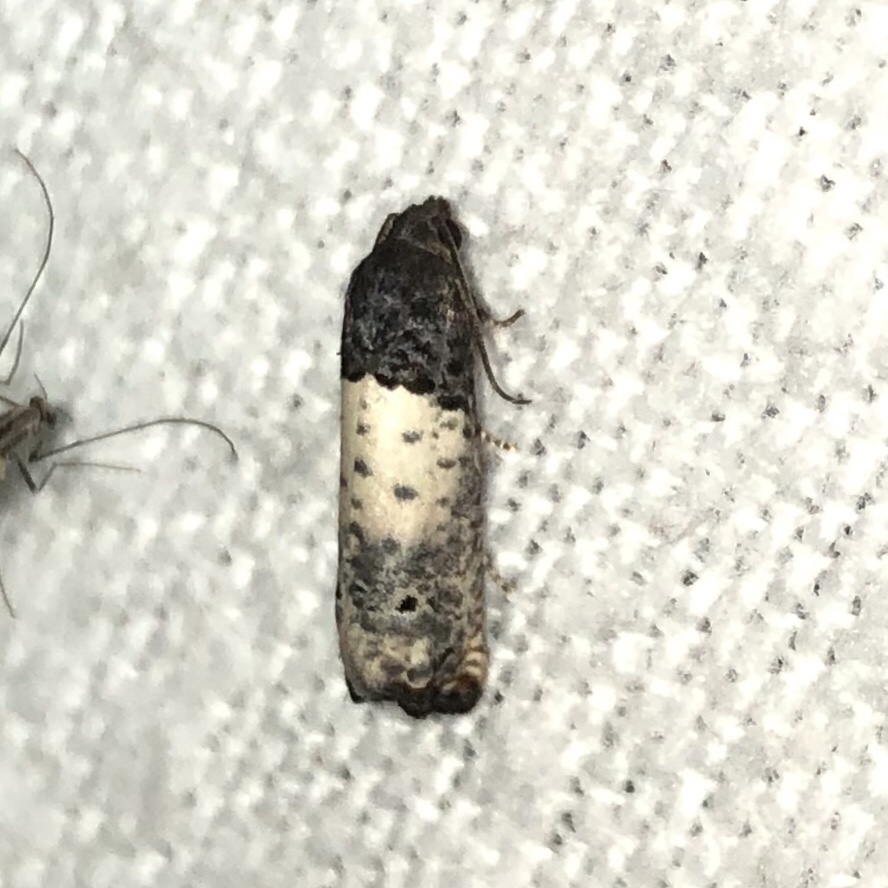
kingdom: Animalia
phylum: Arthropoda
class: Insecta
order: Lepidoptera
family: Tortricidae
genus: Epiblema
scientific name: Epiblema scudderiana
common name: Goldenrod gall moth
